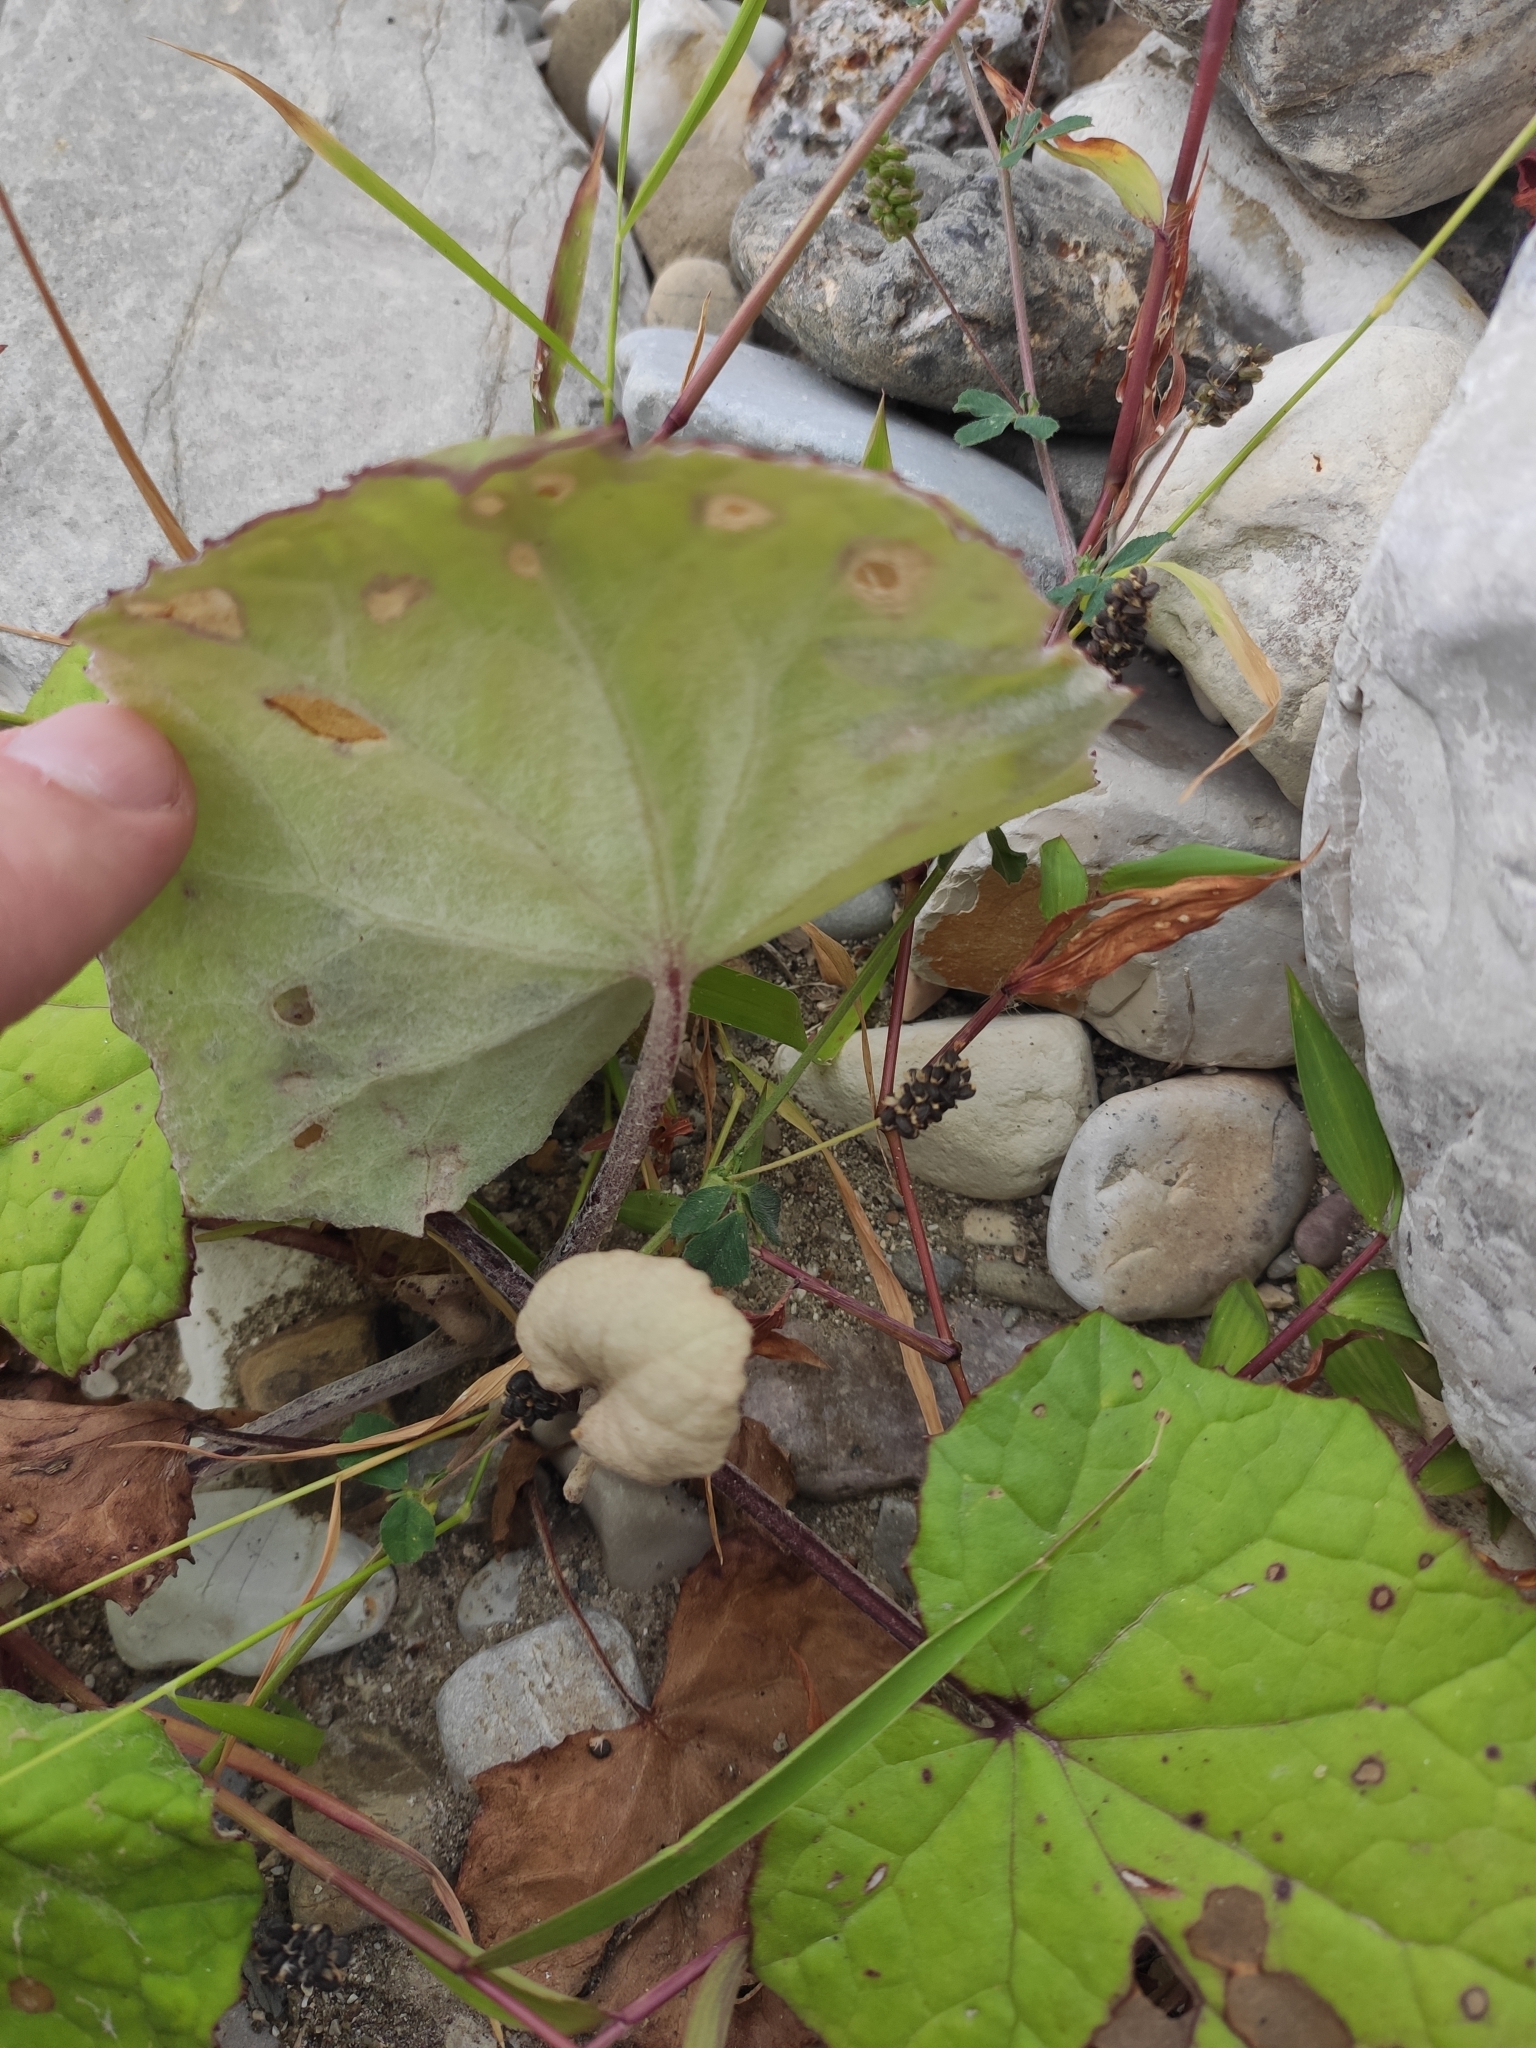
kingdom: Plantae
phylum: Tracheophyta
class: Magnoliopsida
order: Asterales
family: Asteraceae
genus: Tussilago
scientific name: Tussilago farfara
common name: Coltsfoot
